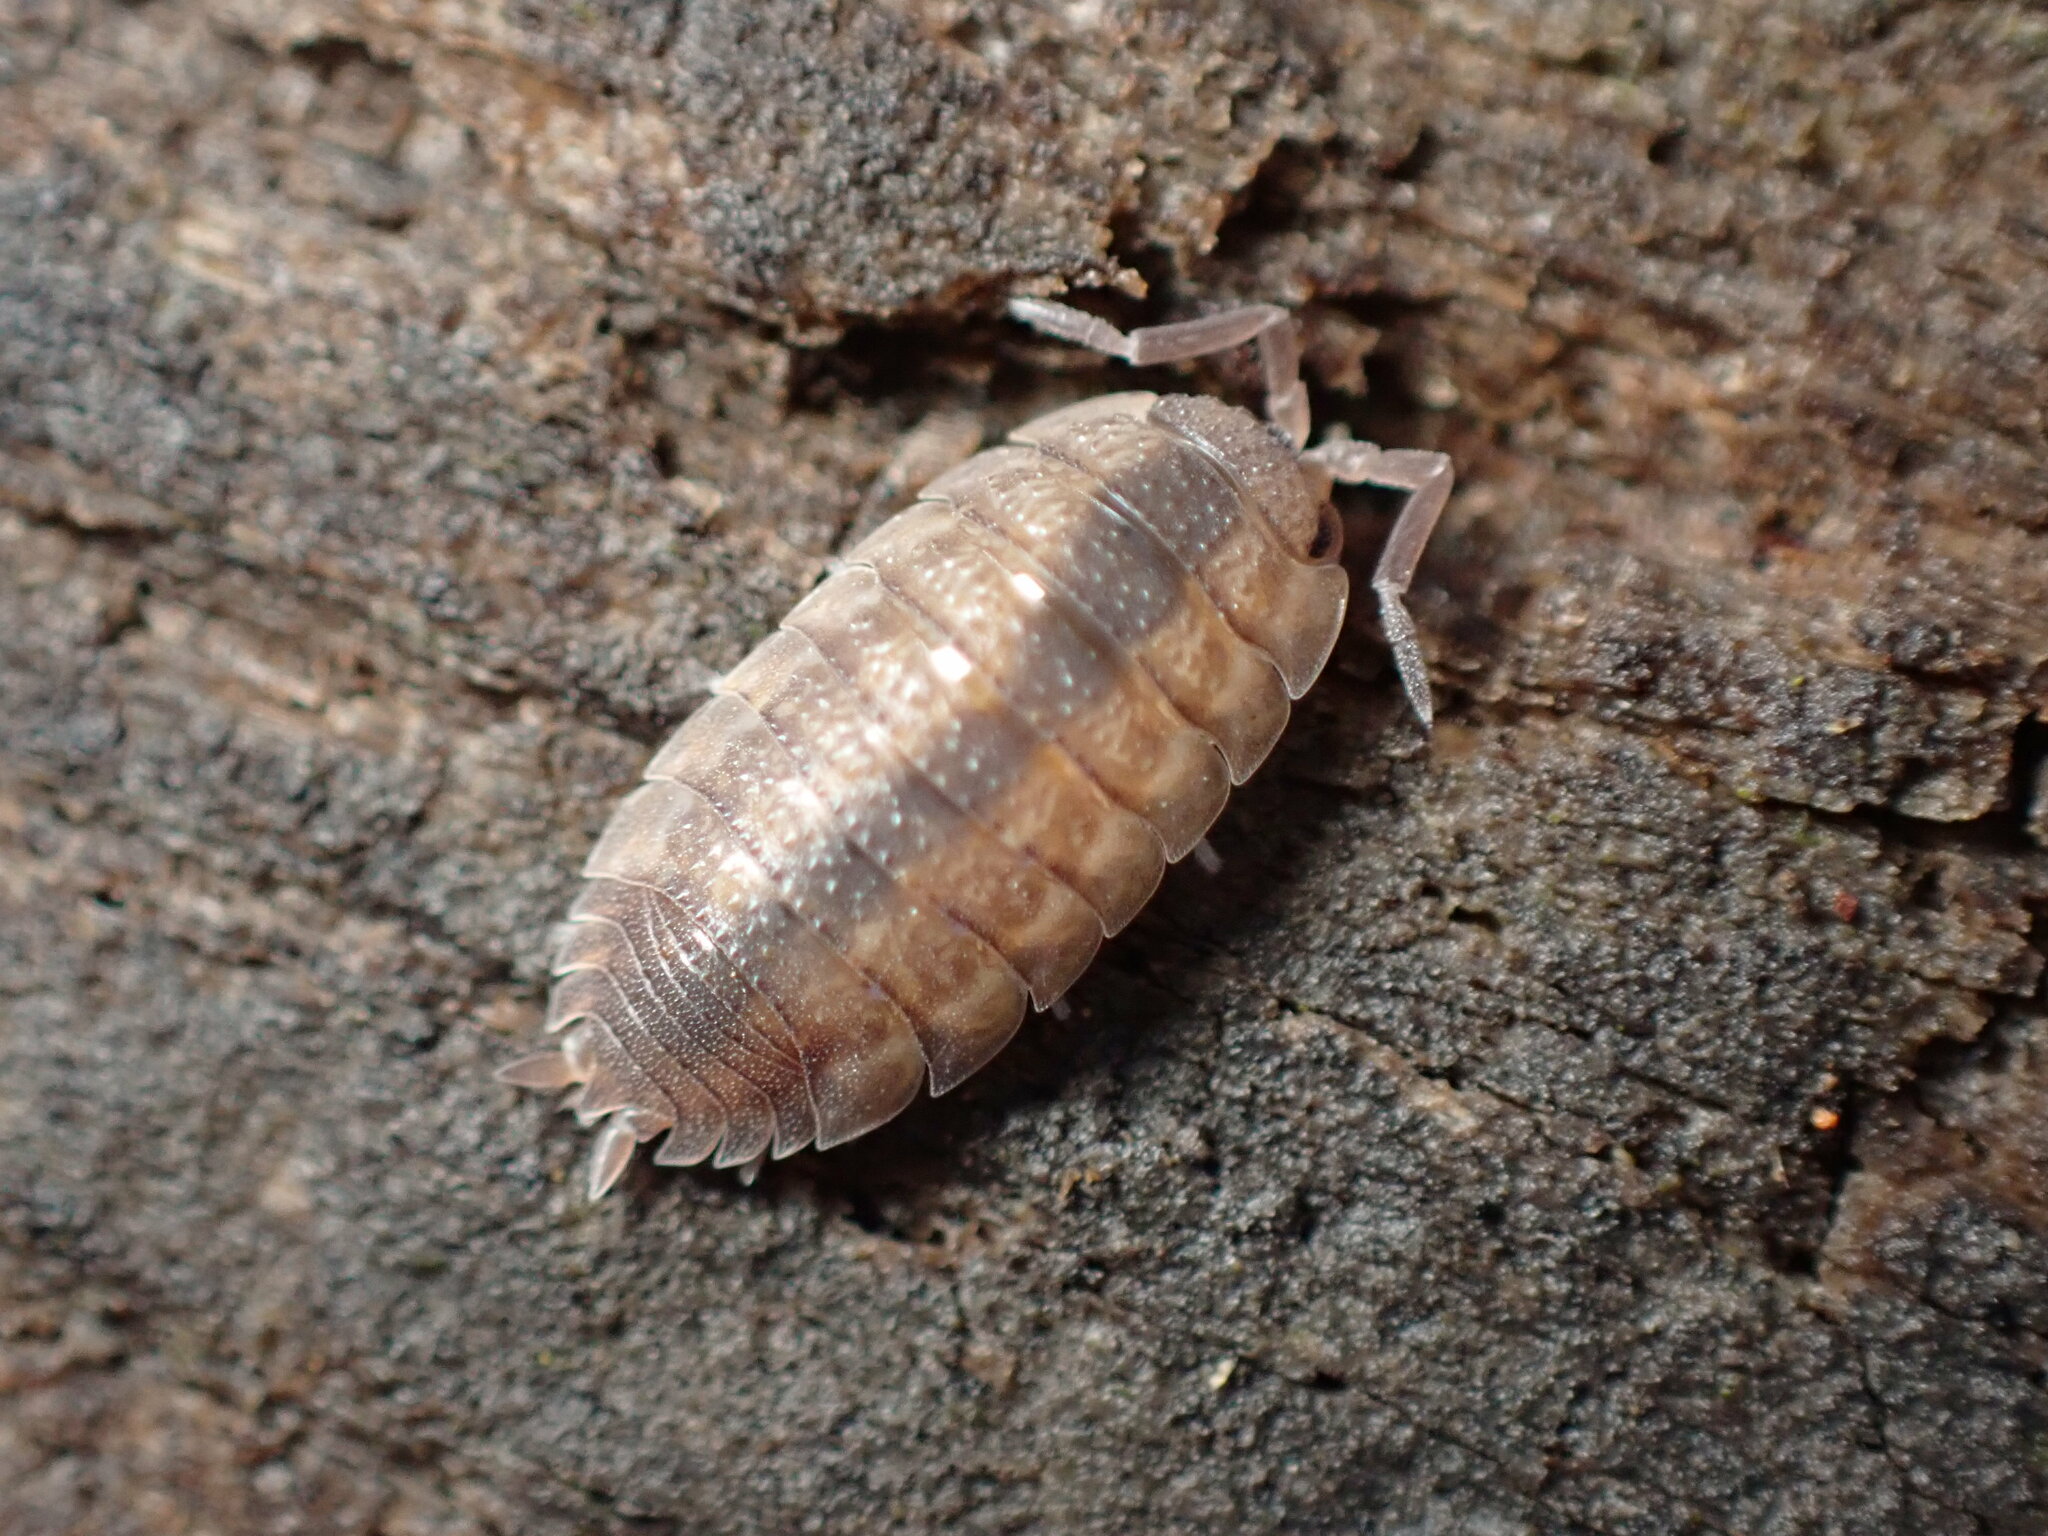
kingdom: Animalia
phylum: Arthropoda
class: Malacostraca
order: Isopoda
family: Porcellionidae
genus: Porcellio
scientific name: Porcellio scaber
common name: Common rough woodlouse
